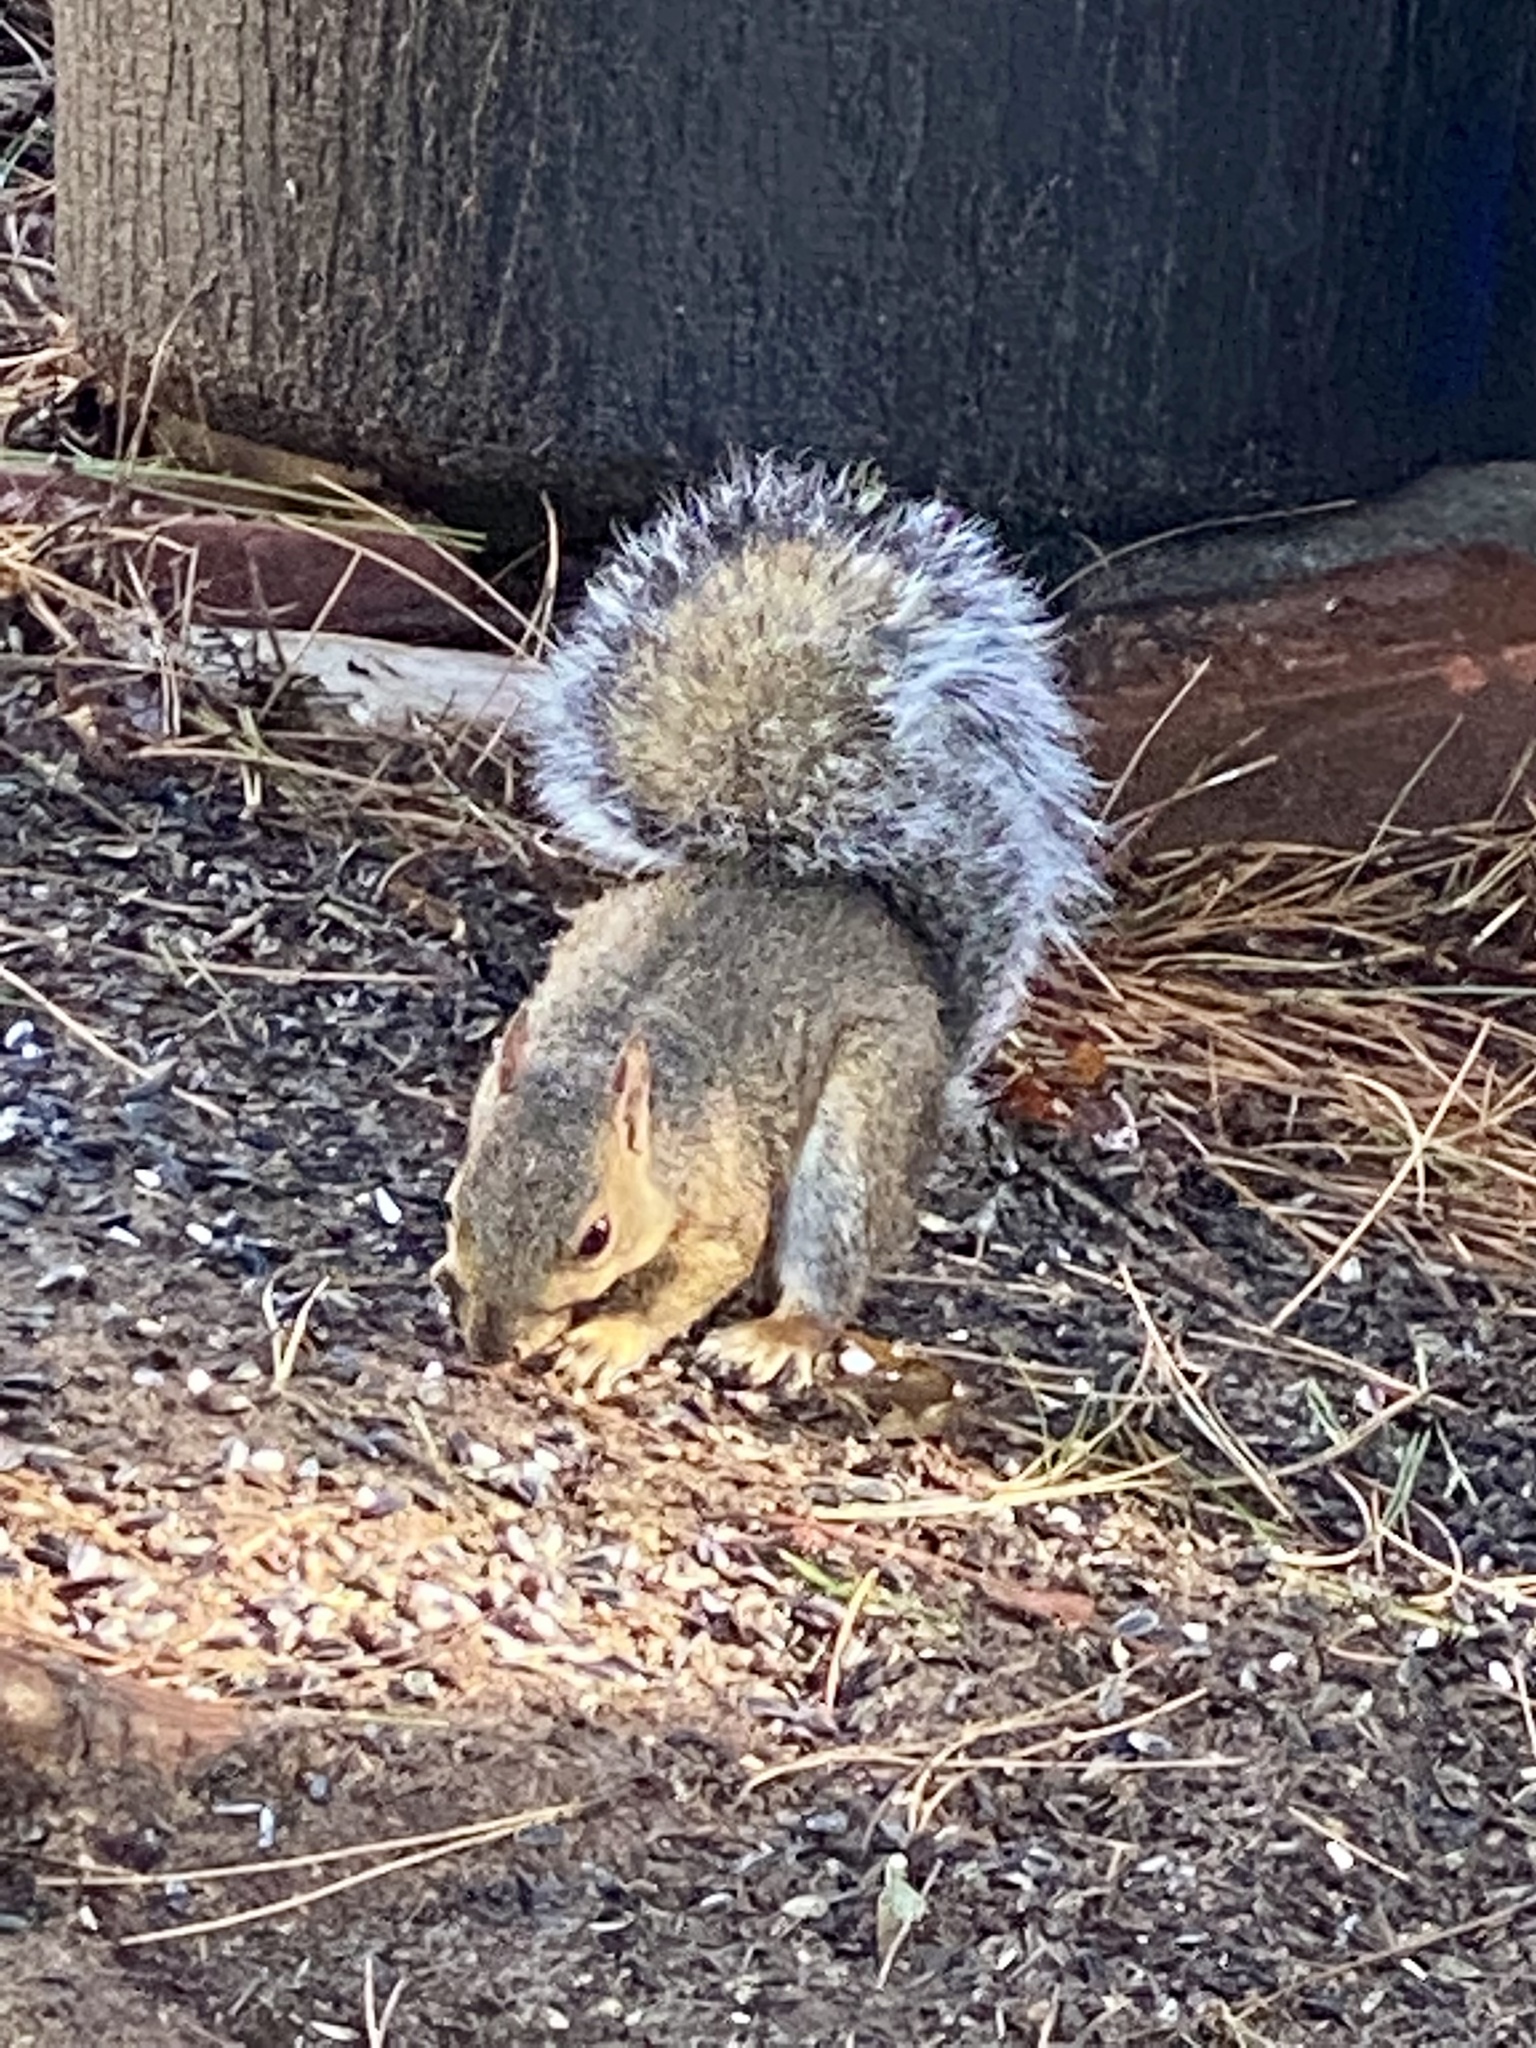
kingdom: Animalia
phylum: Chordata
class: Mammalia
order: Rodentia
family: Sciuridae
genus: Sciurus
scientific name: Sciurus carolinensis
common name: Eastern gray squirrel
